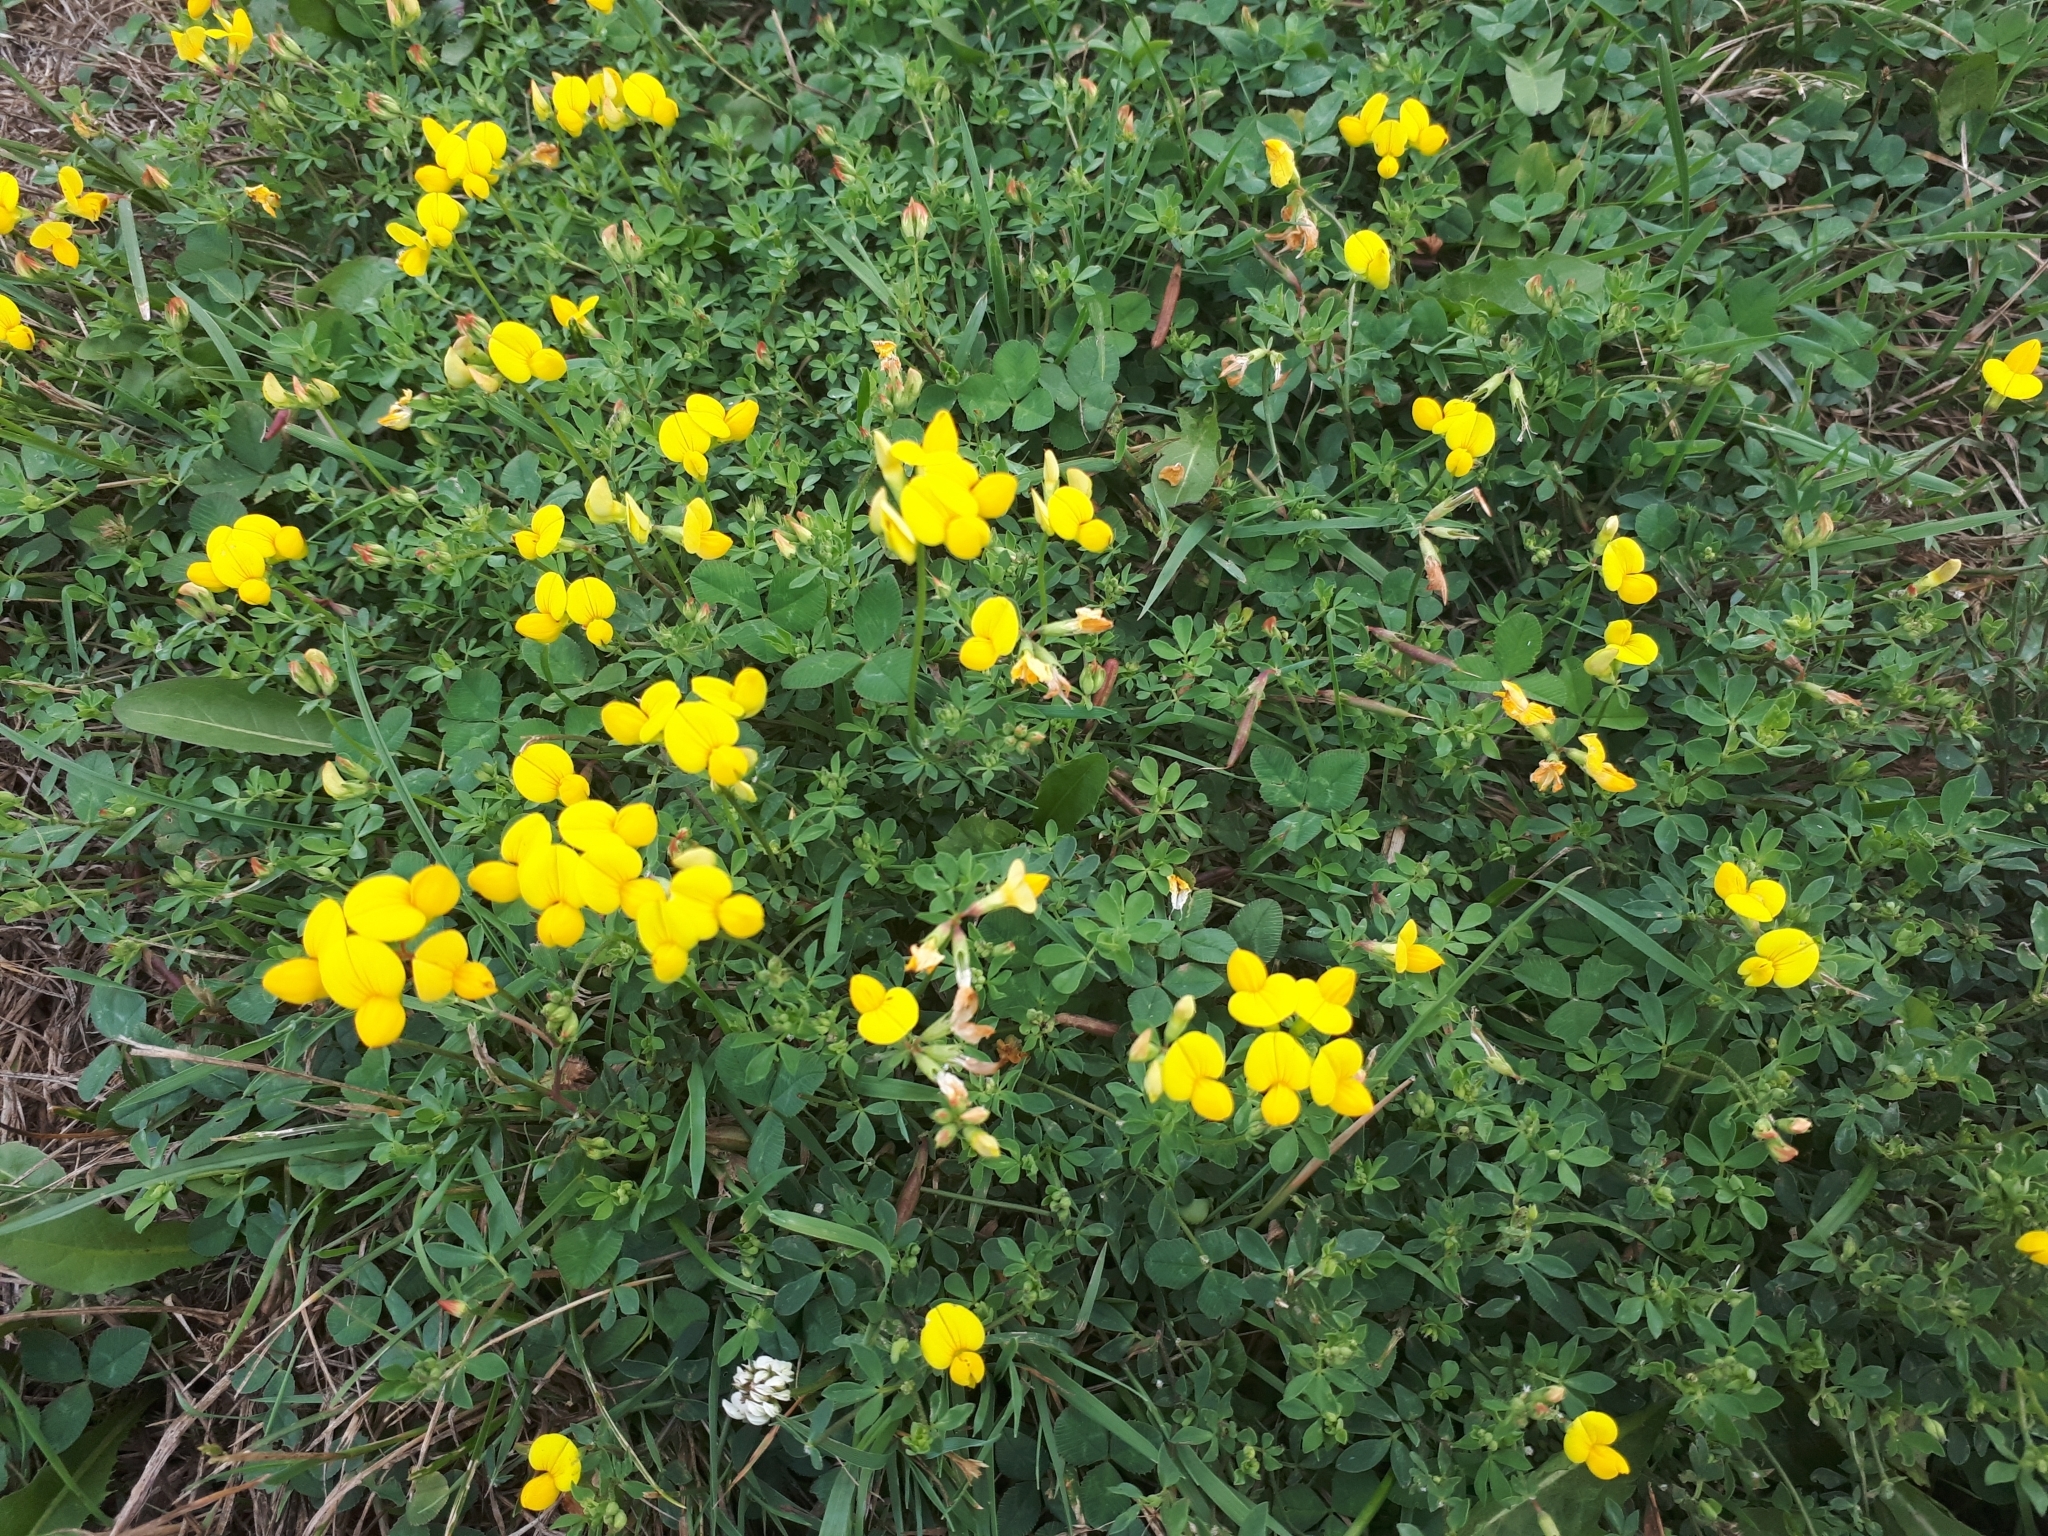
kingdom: Plantae
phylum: Tracheophyta
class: Magnoliopsida
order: Fabales
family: Fabaceae
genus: Lotus
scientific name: Lotus corniculatus
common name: Common bird's-foot-trefoil
